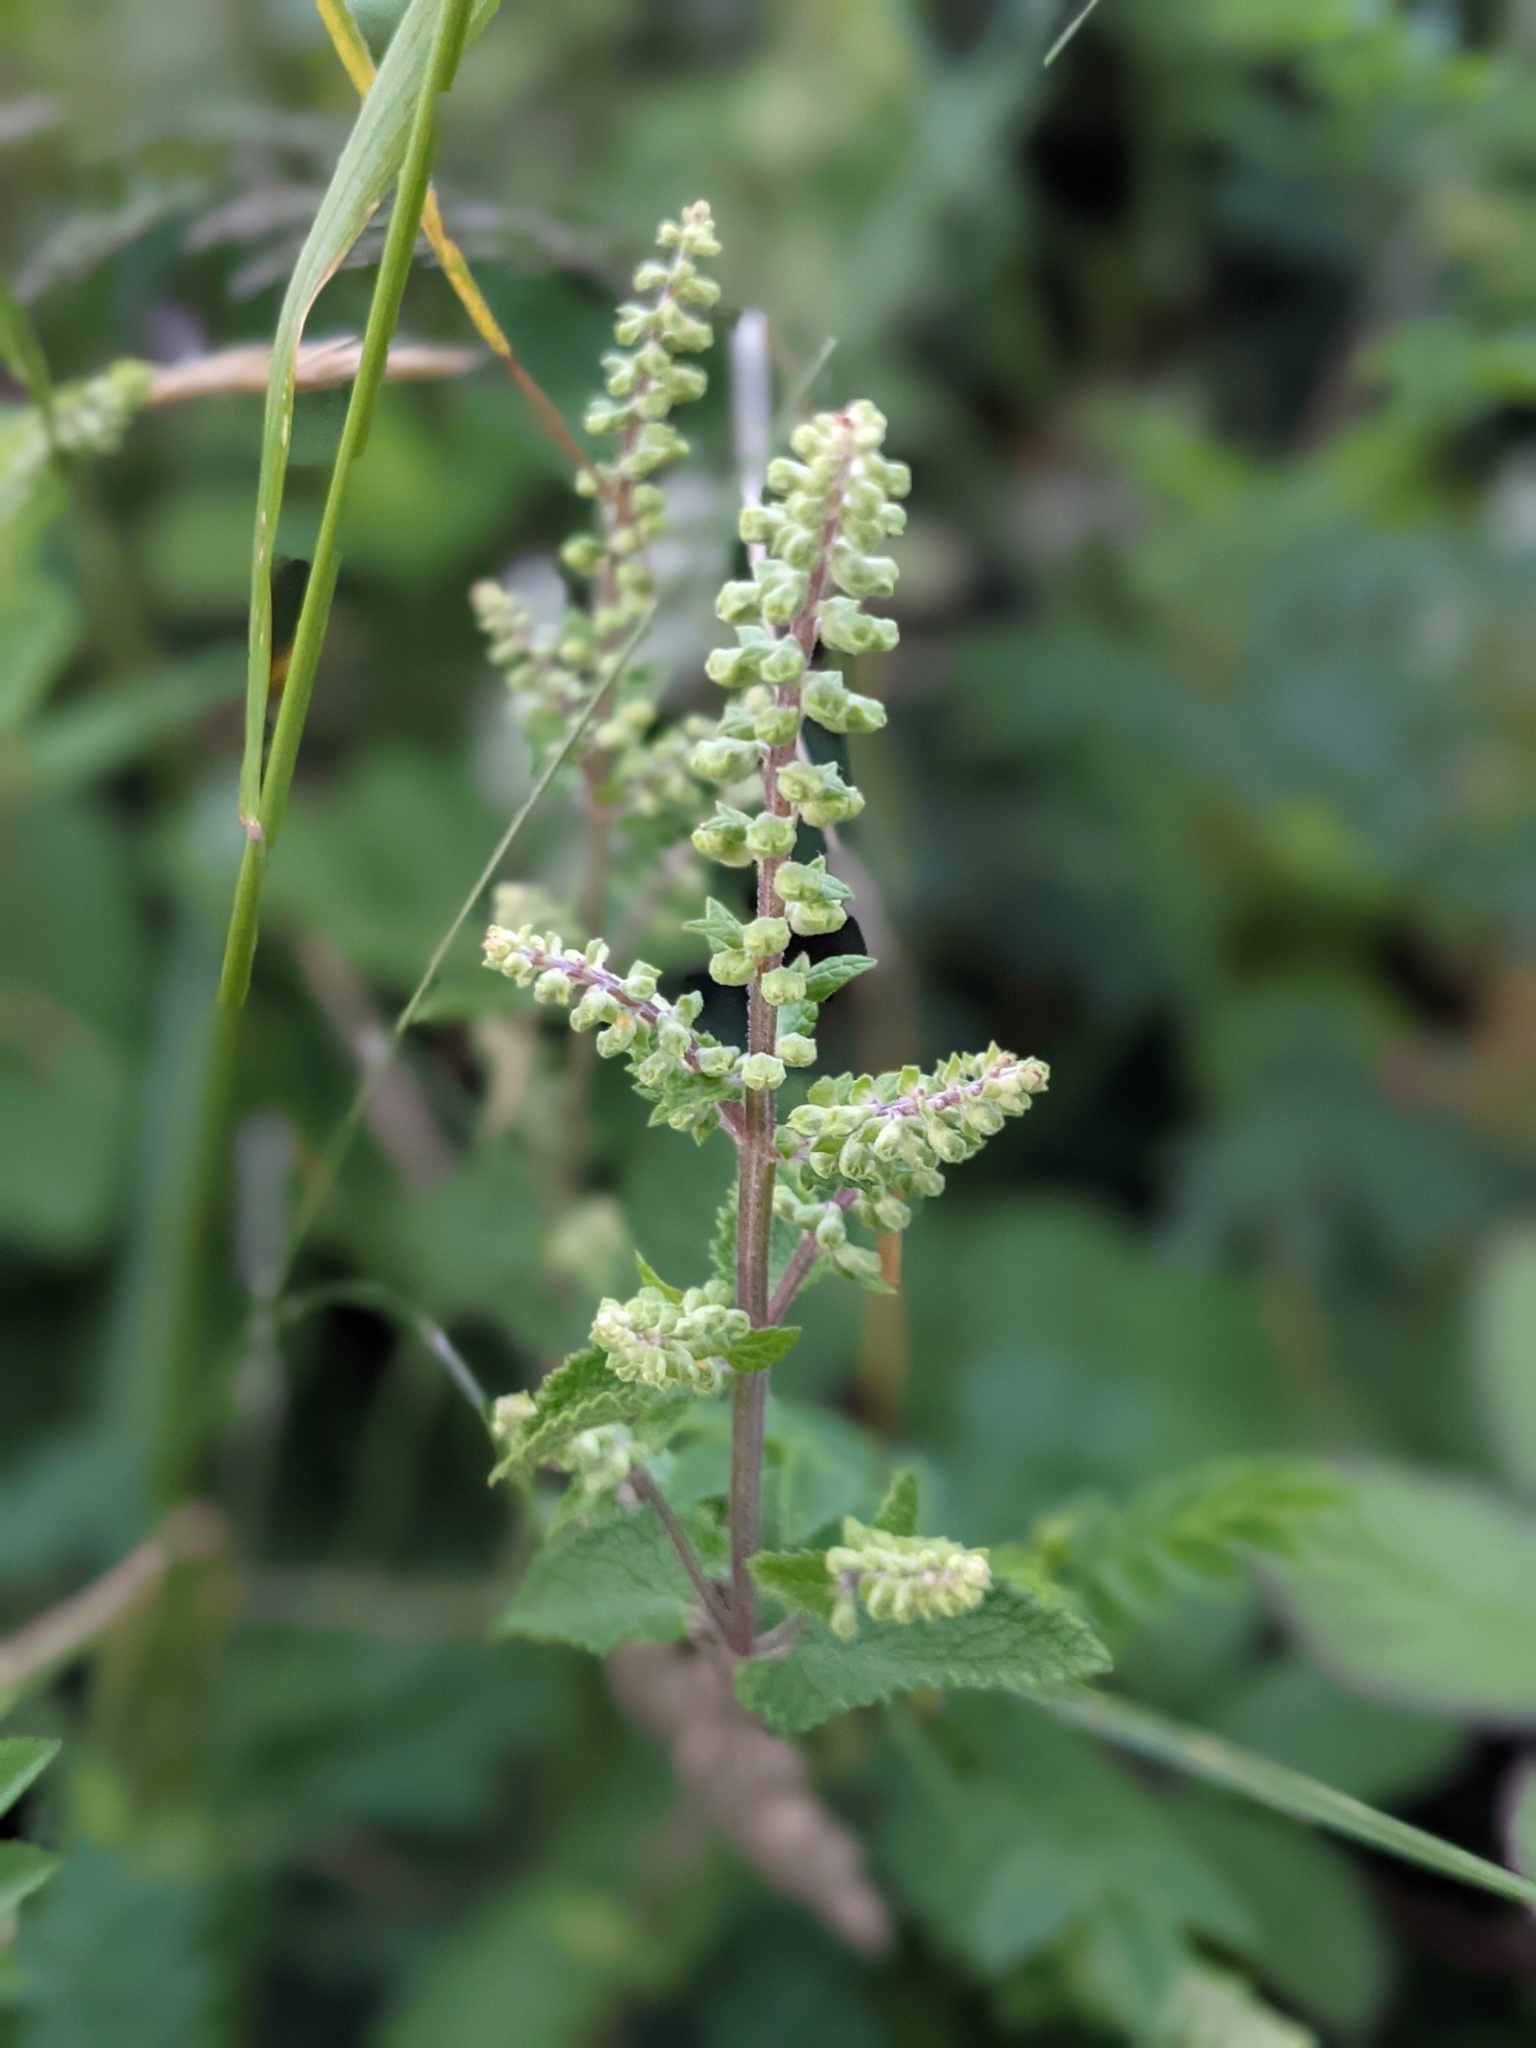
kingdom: Plantae
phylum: Tracheophyta
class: Magnoliopsida
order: Lamiales
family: Lamiaceae
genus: Teucrium
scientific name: Teucrium scorodonia
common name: Woodland germander
